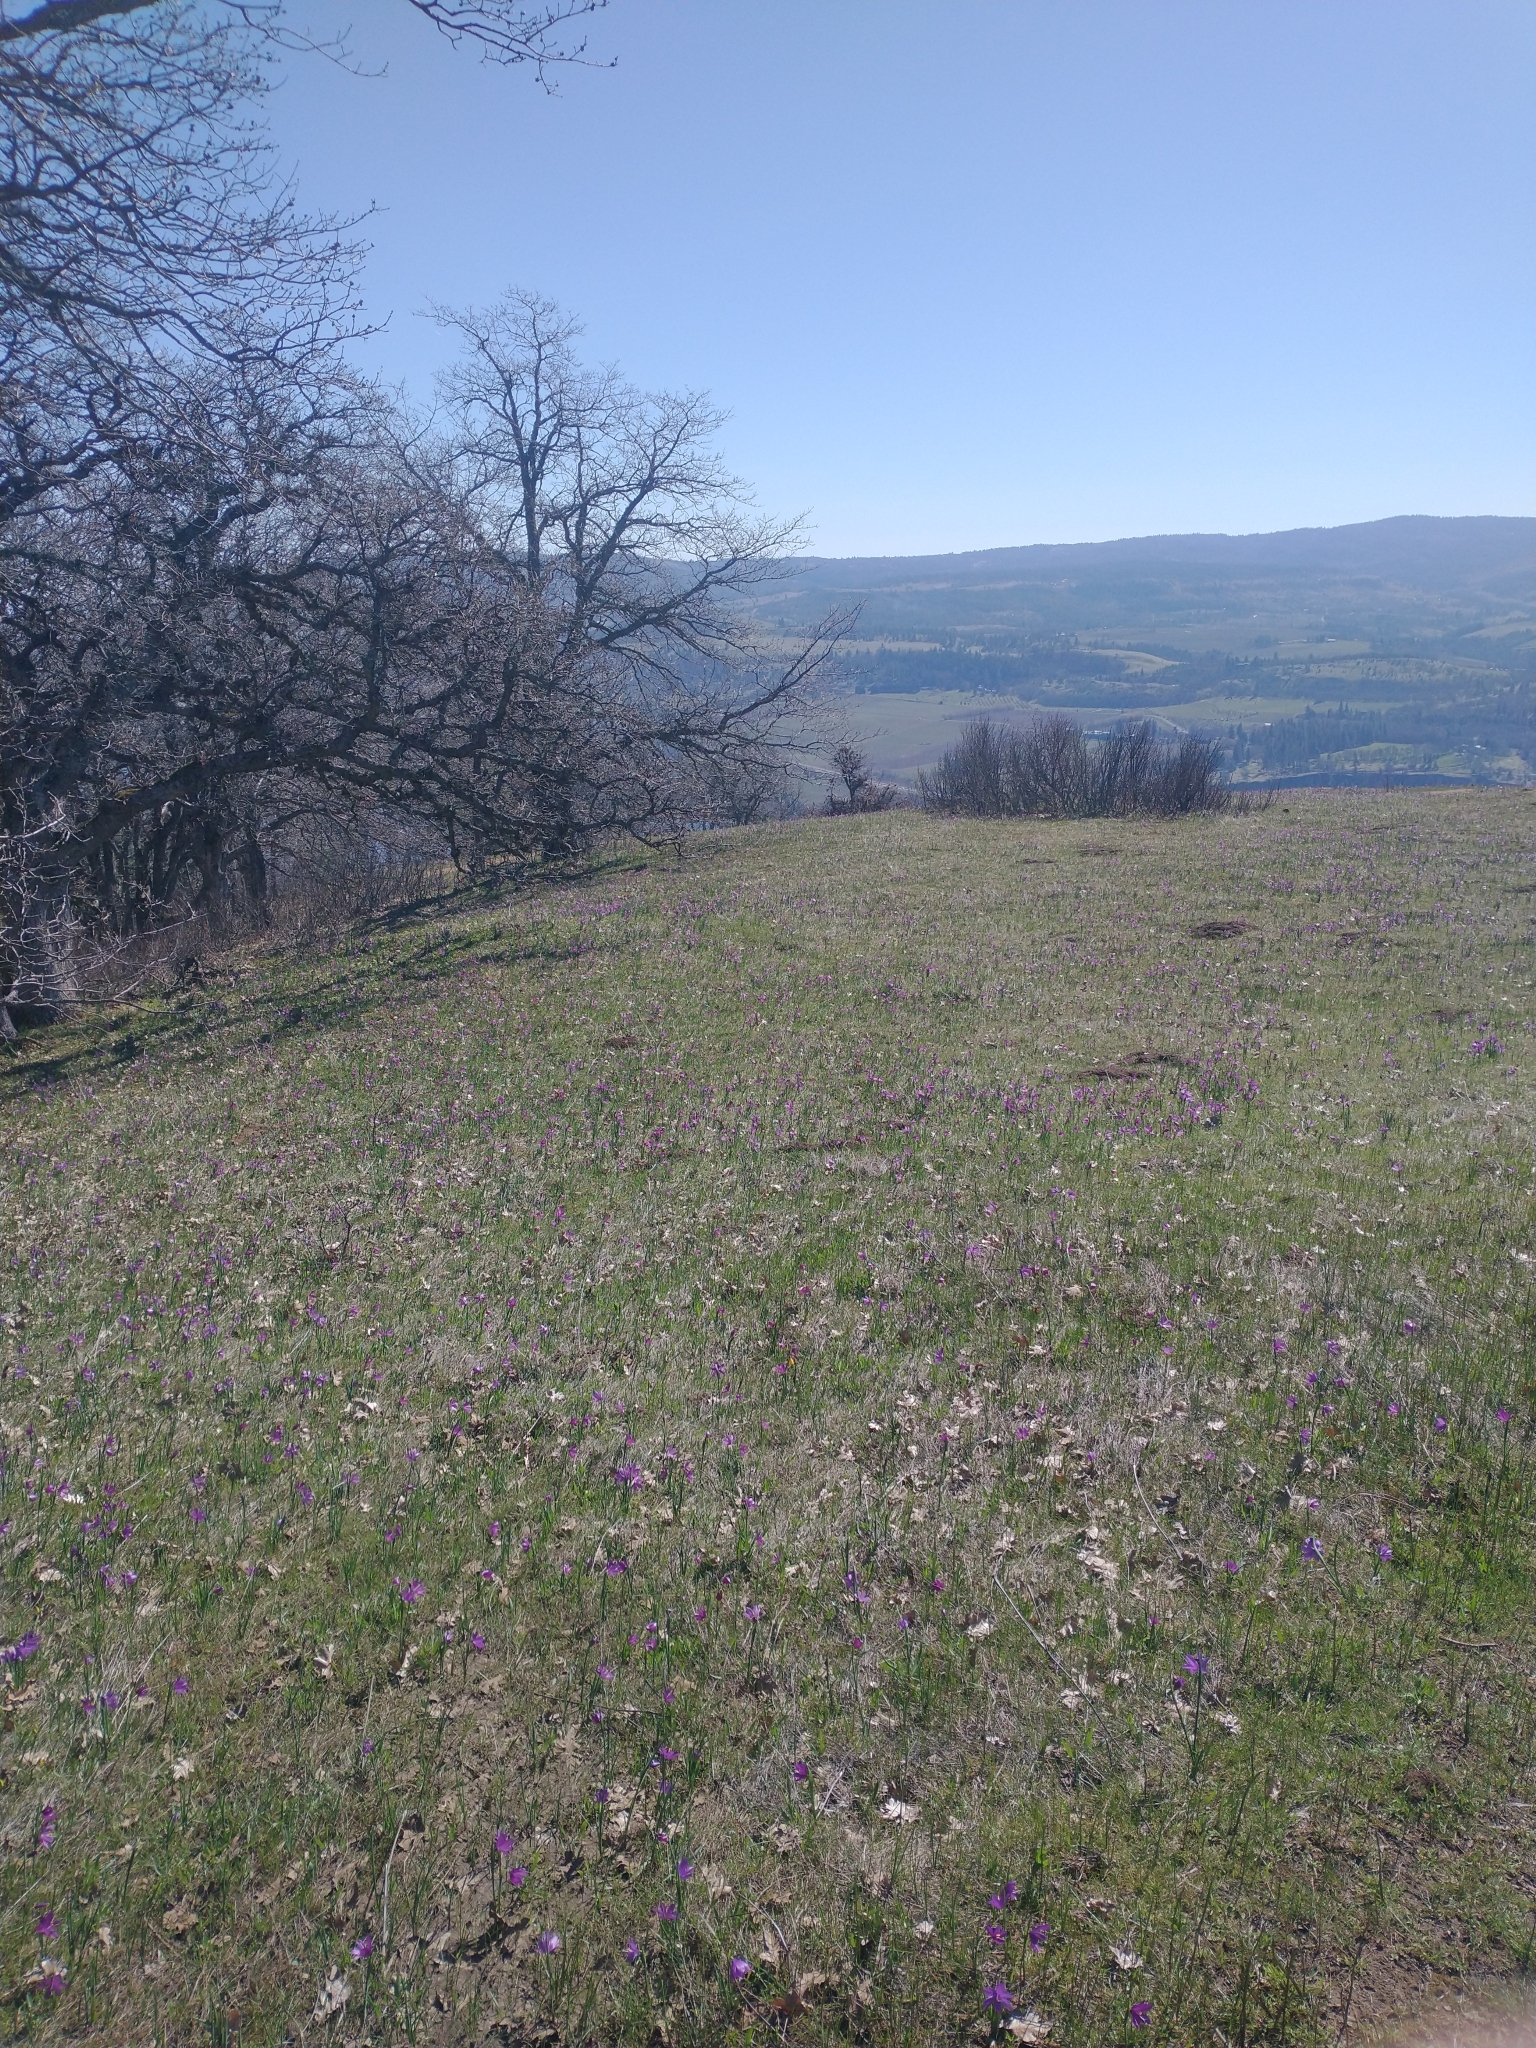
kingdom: Plantae
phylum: Tracheophyta
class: Liliopsida
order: Asparagales
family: Iridaceae
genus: Olsynium
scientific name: Olsynium douglasii
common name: Douglas' grasswidow
